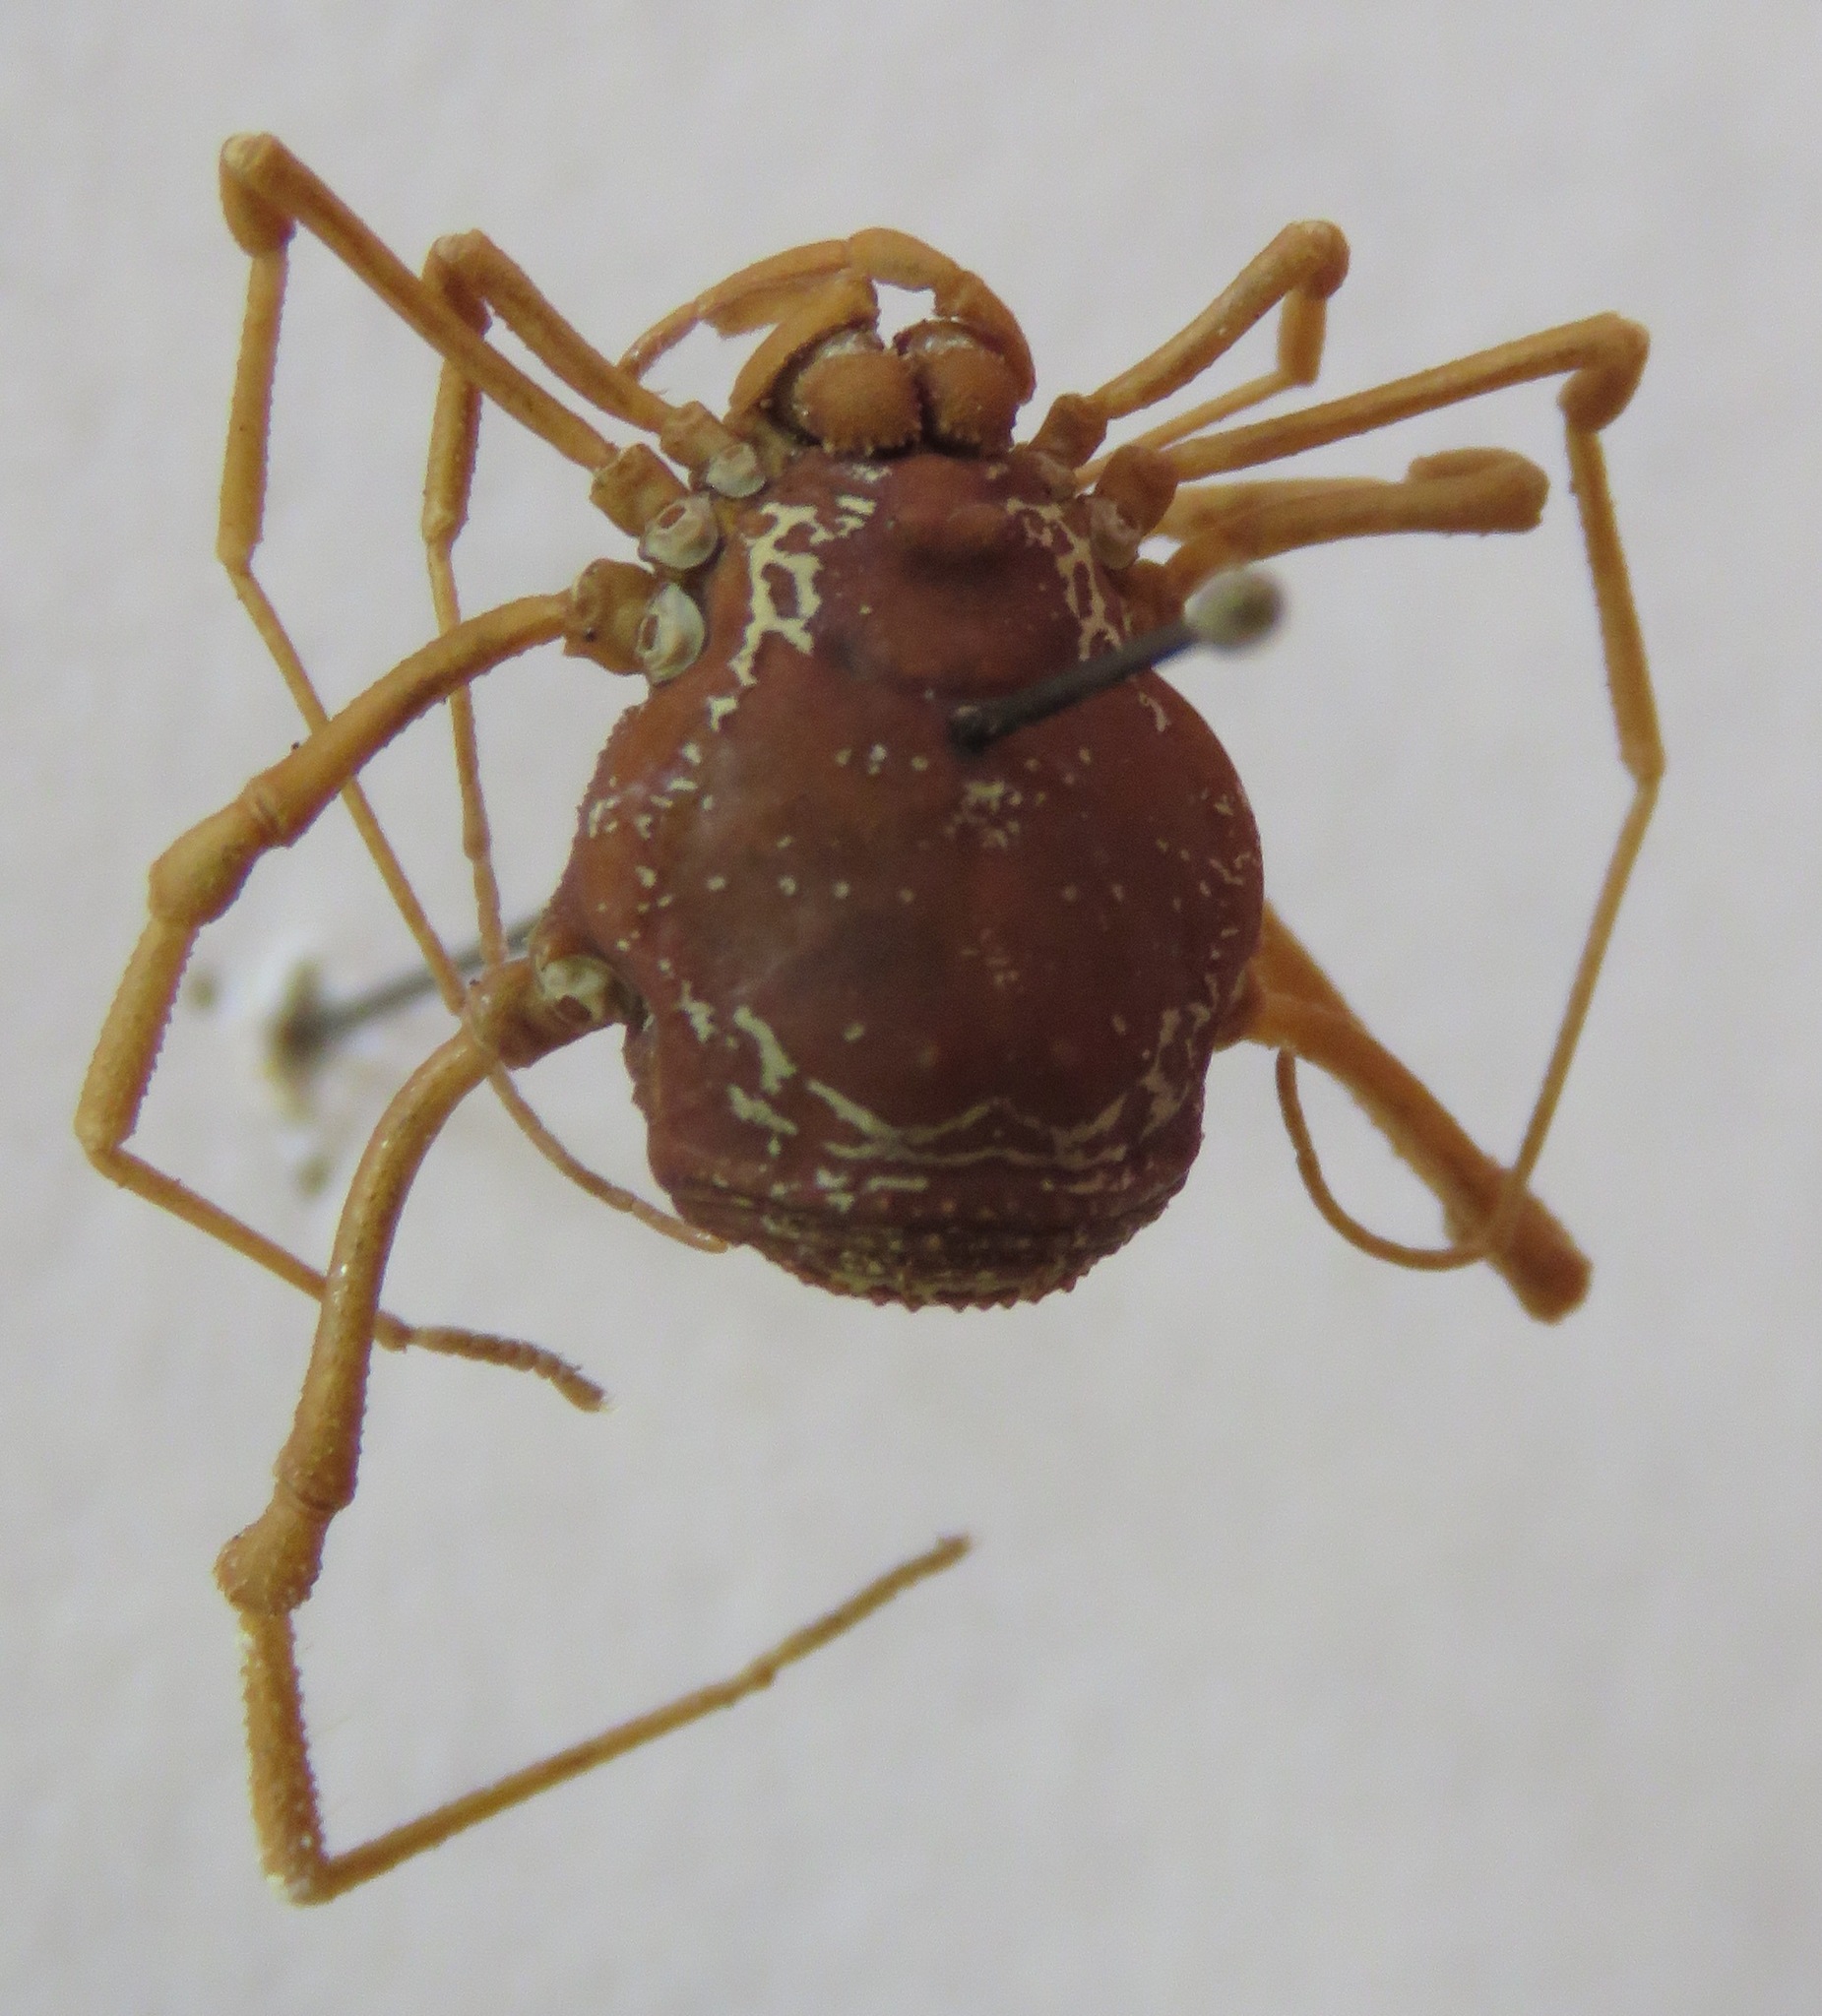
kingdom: Animalia
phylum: Arthropoda
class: Arachnida
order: Opiliones
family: Cosmetidae
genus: Erginulus
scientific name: Erginulus subserialis
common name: Harvestmen
